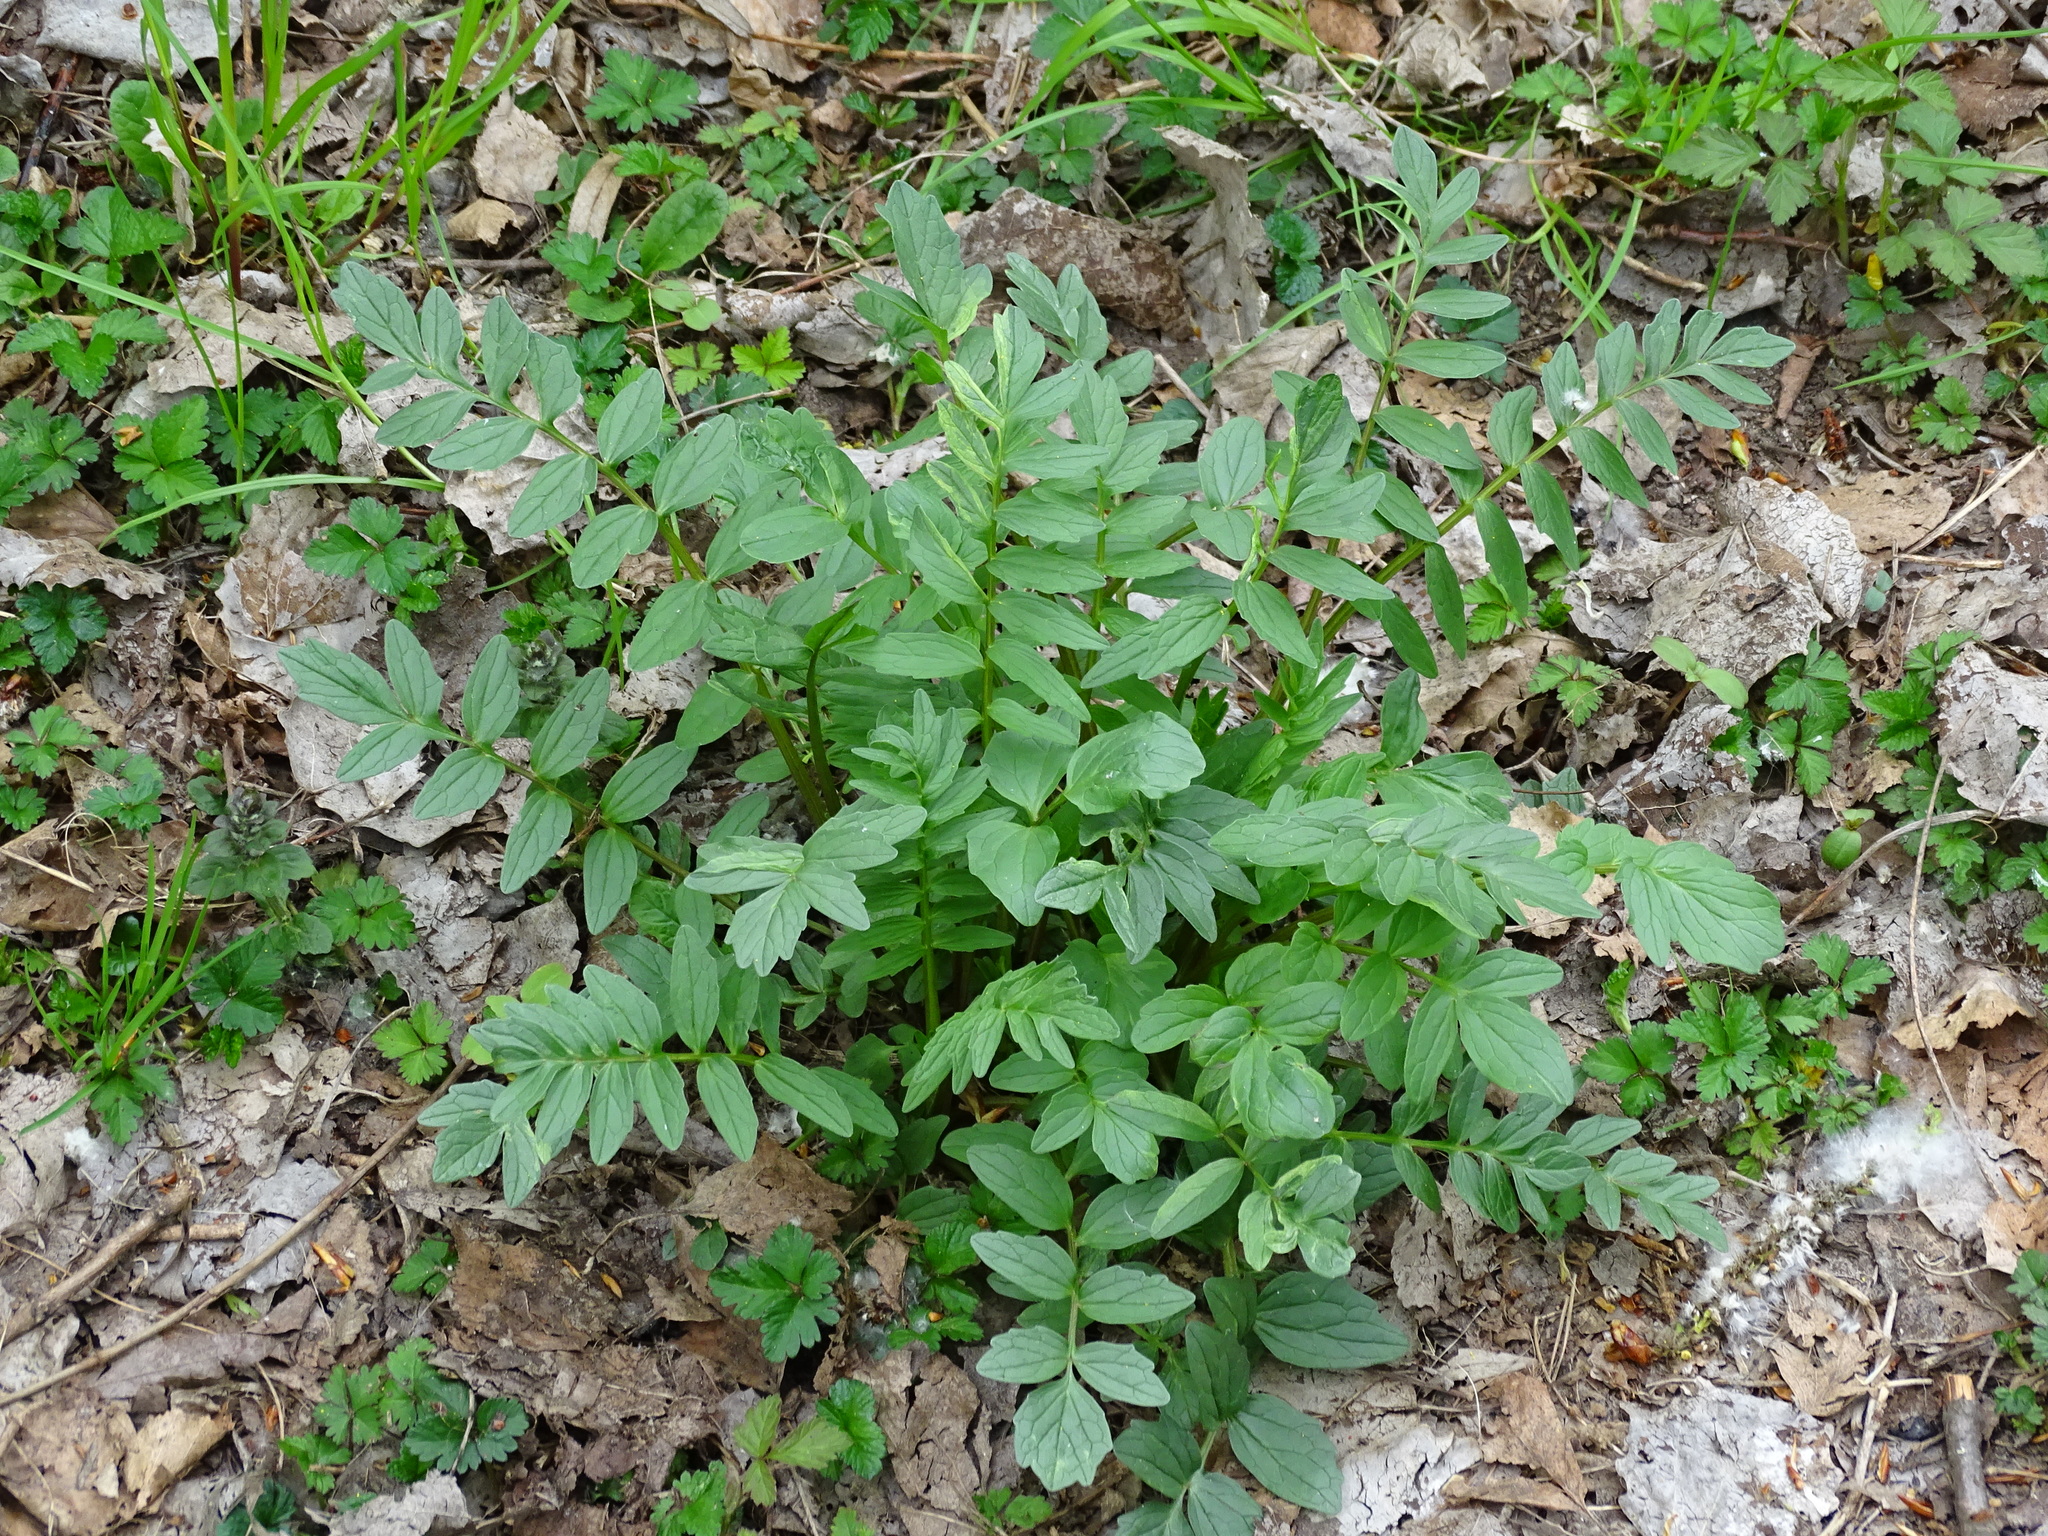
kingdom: Plantae
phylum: Tracheophyta
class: Magnoliopsida
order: Dipsacales
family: Caprifoliaceae
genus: Valeriana
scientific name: Valeriana officinalis
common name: Common valerian
